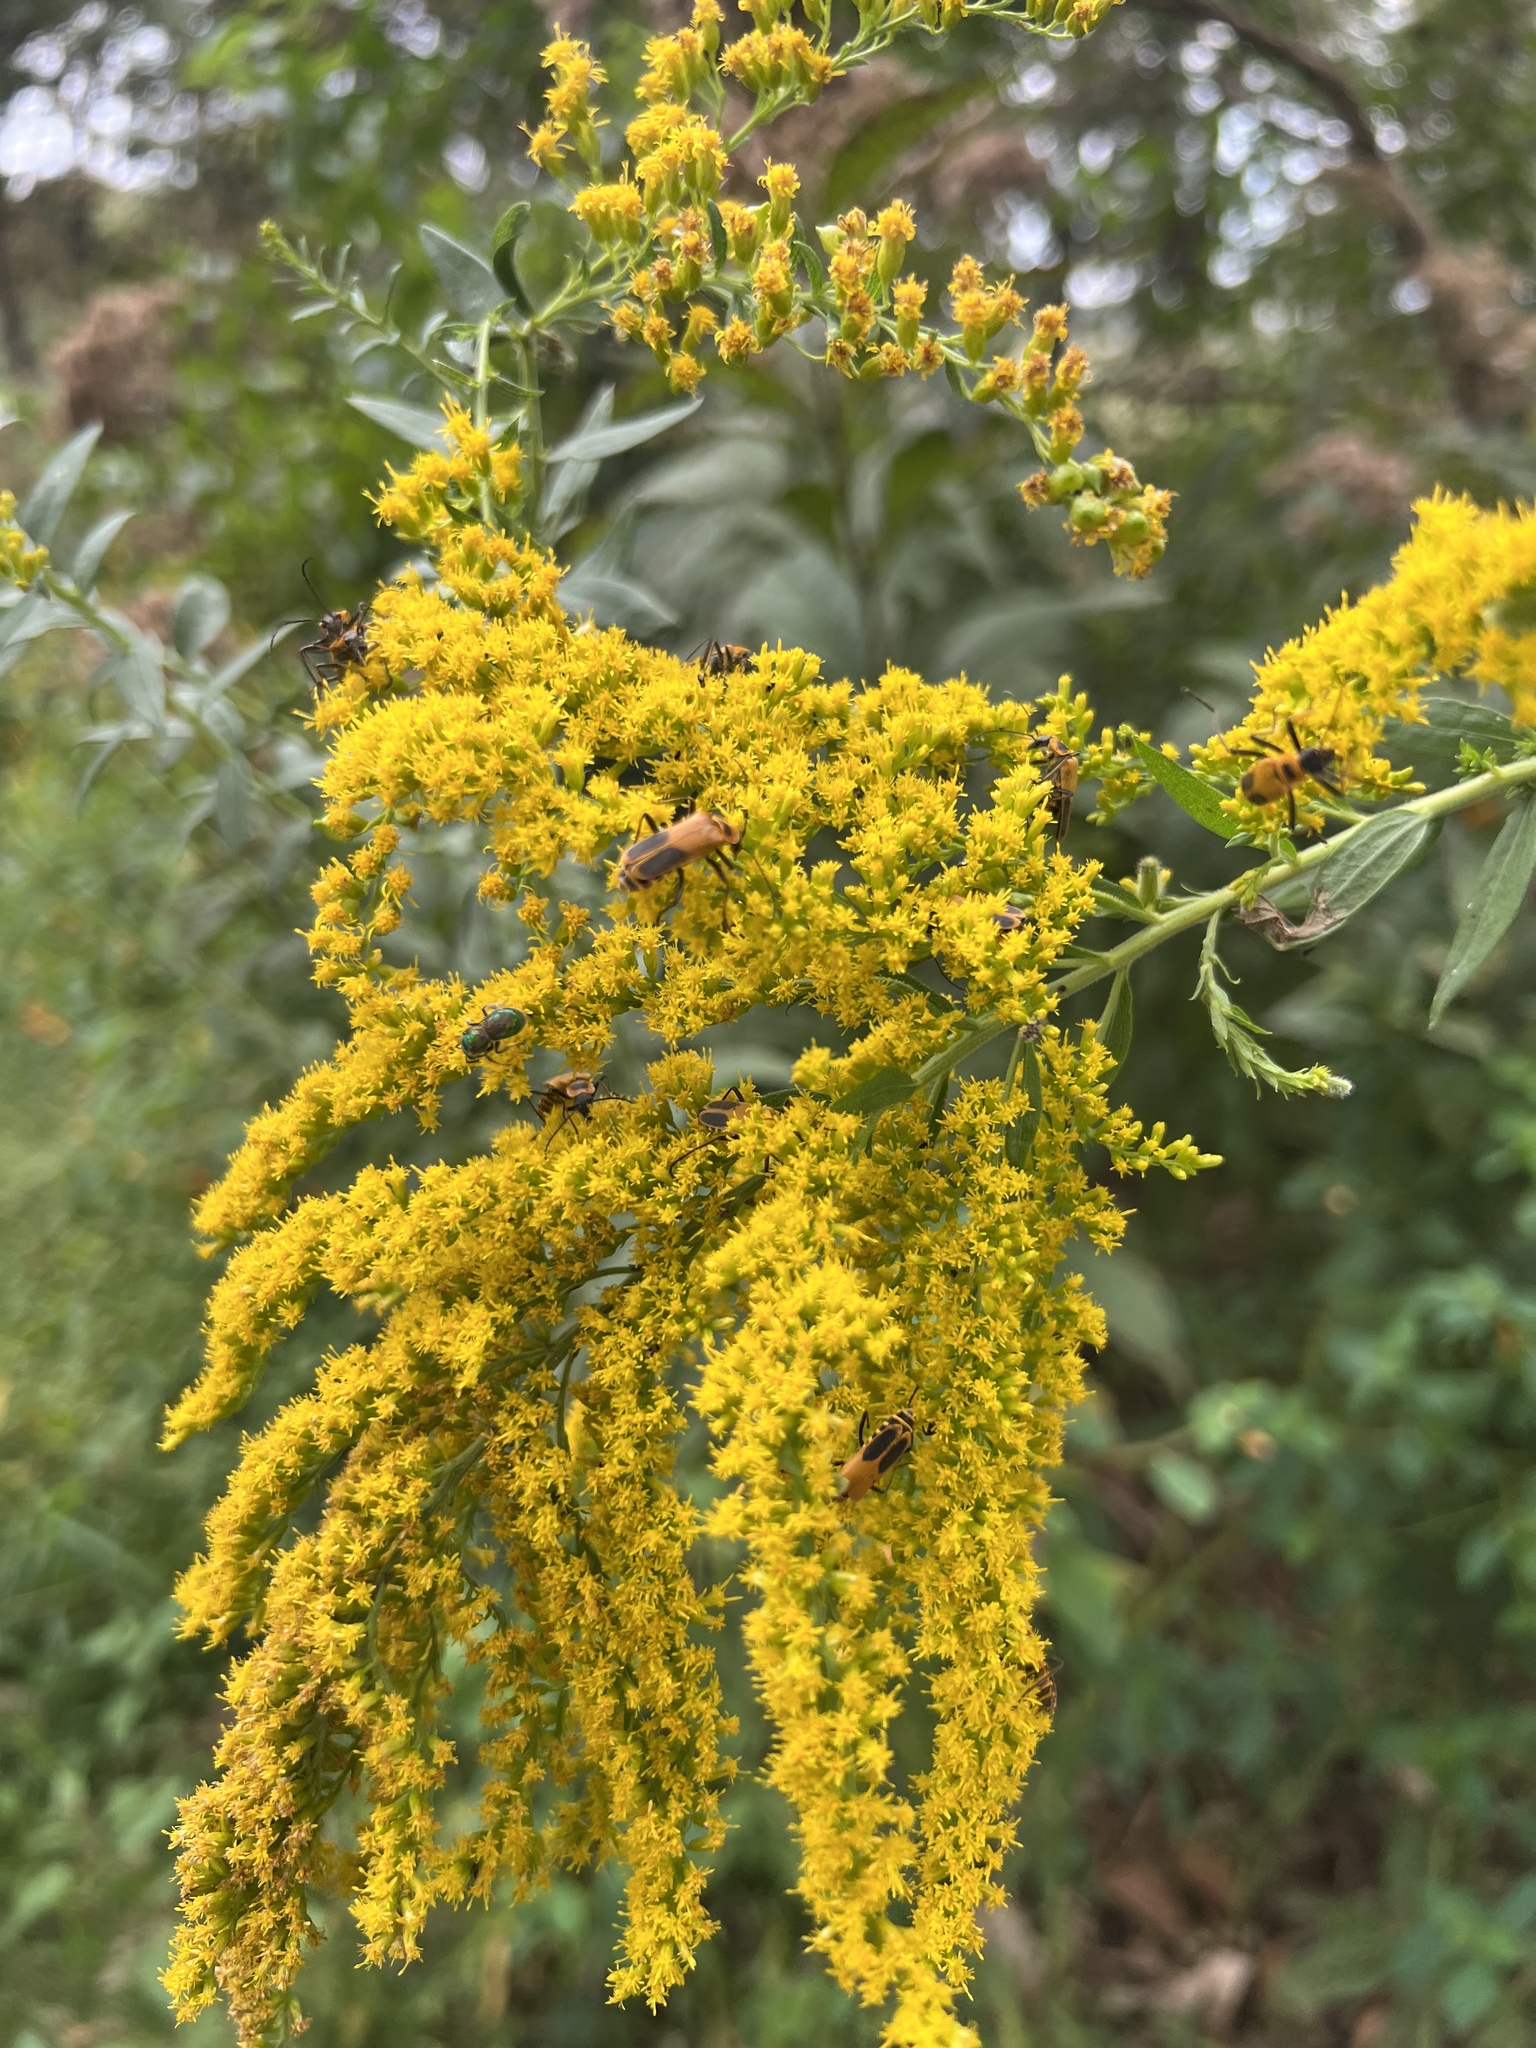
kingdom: Animalia
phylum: Arthropoda
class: Insecta
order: Coleoptera
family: Cantharidae
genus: Chauliognathus
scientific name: Chauliognathus pensylvanicus
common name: Goldenrod soldier beetle
